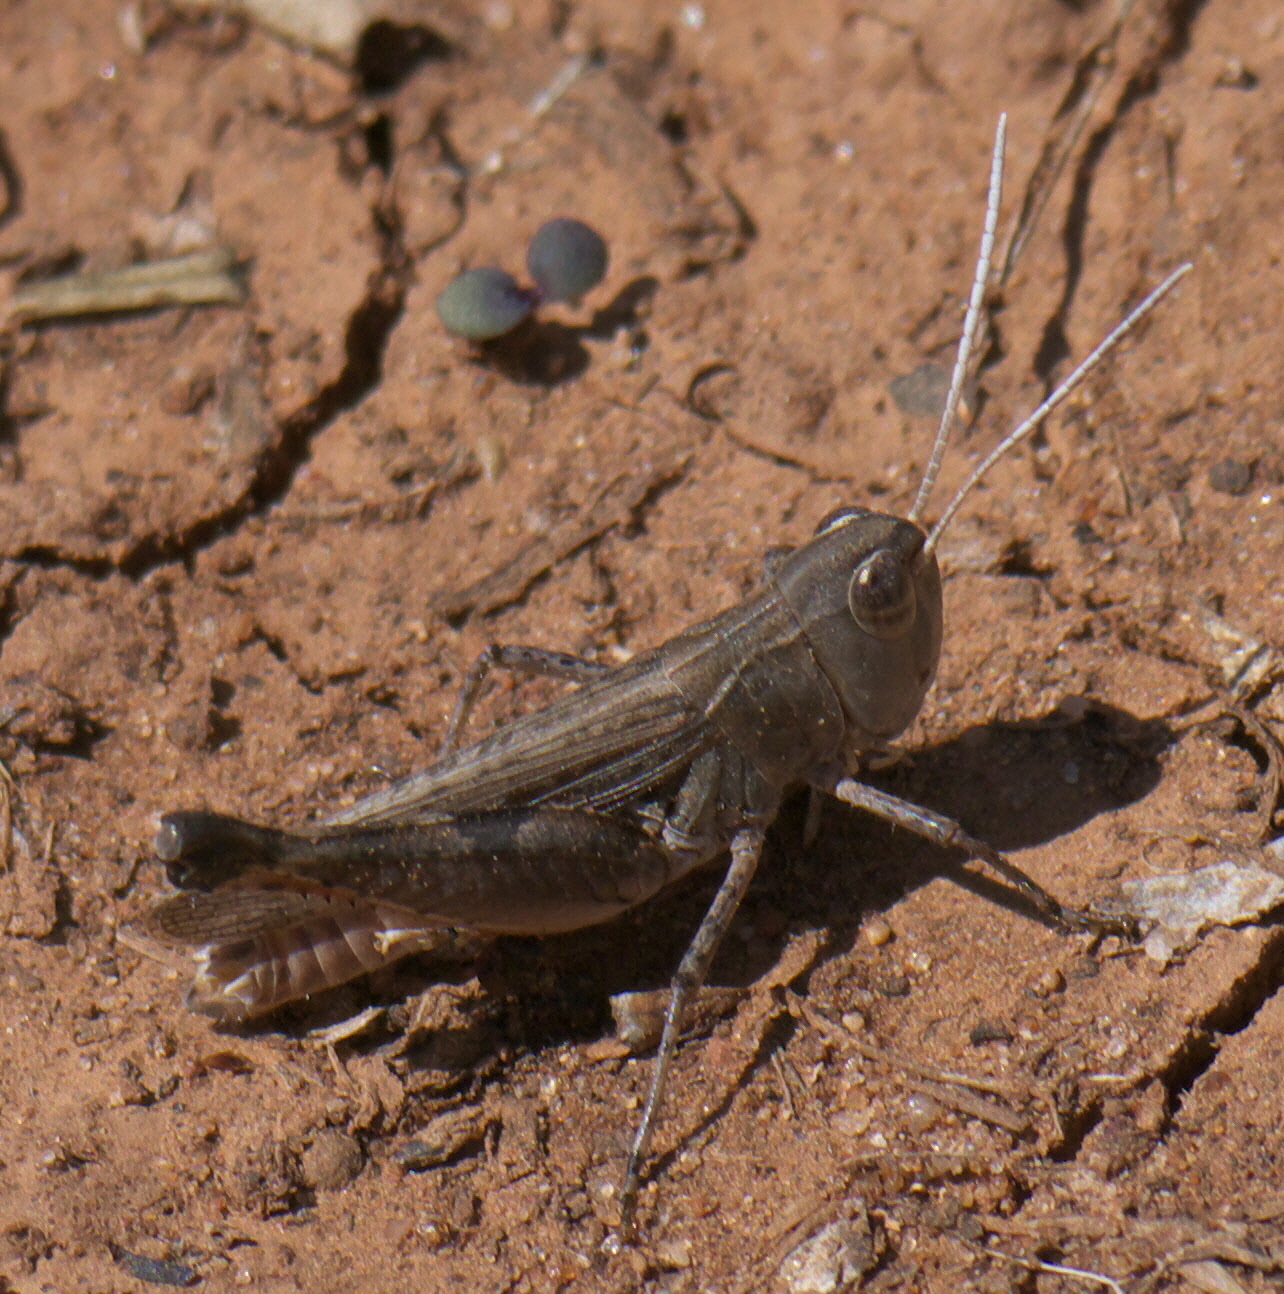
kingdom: Animalia
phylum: Arthropoda
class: Insecta
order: Orthoptera
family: Acrididae
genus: Ageneotettix
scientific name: Ageneotettix deorum
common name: White-whiskered grasshopper
